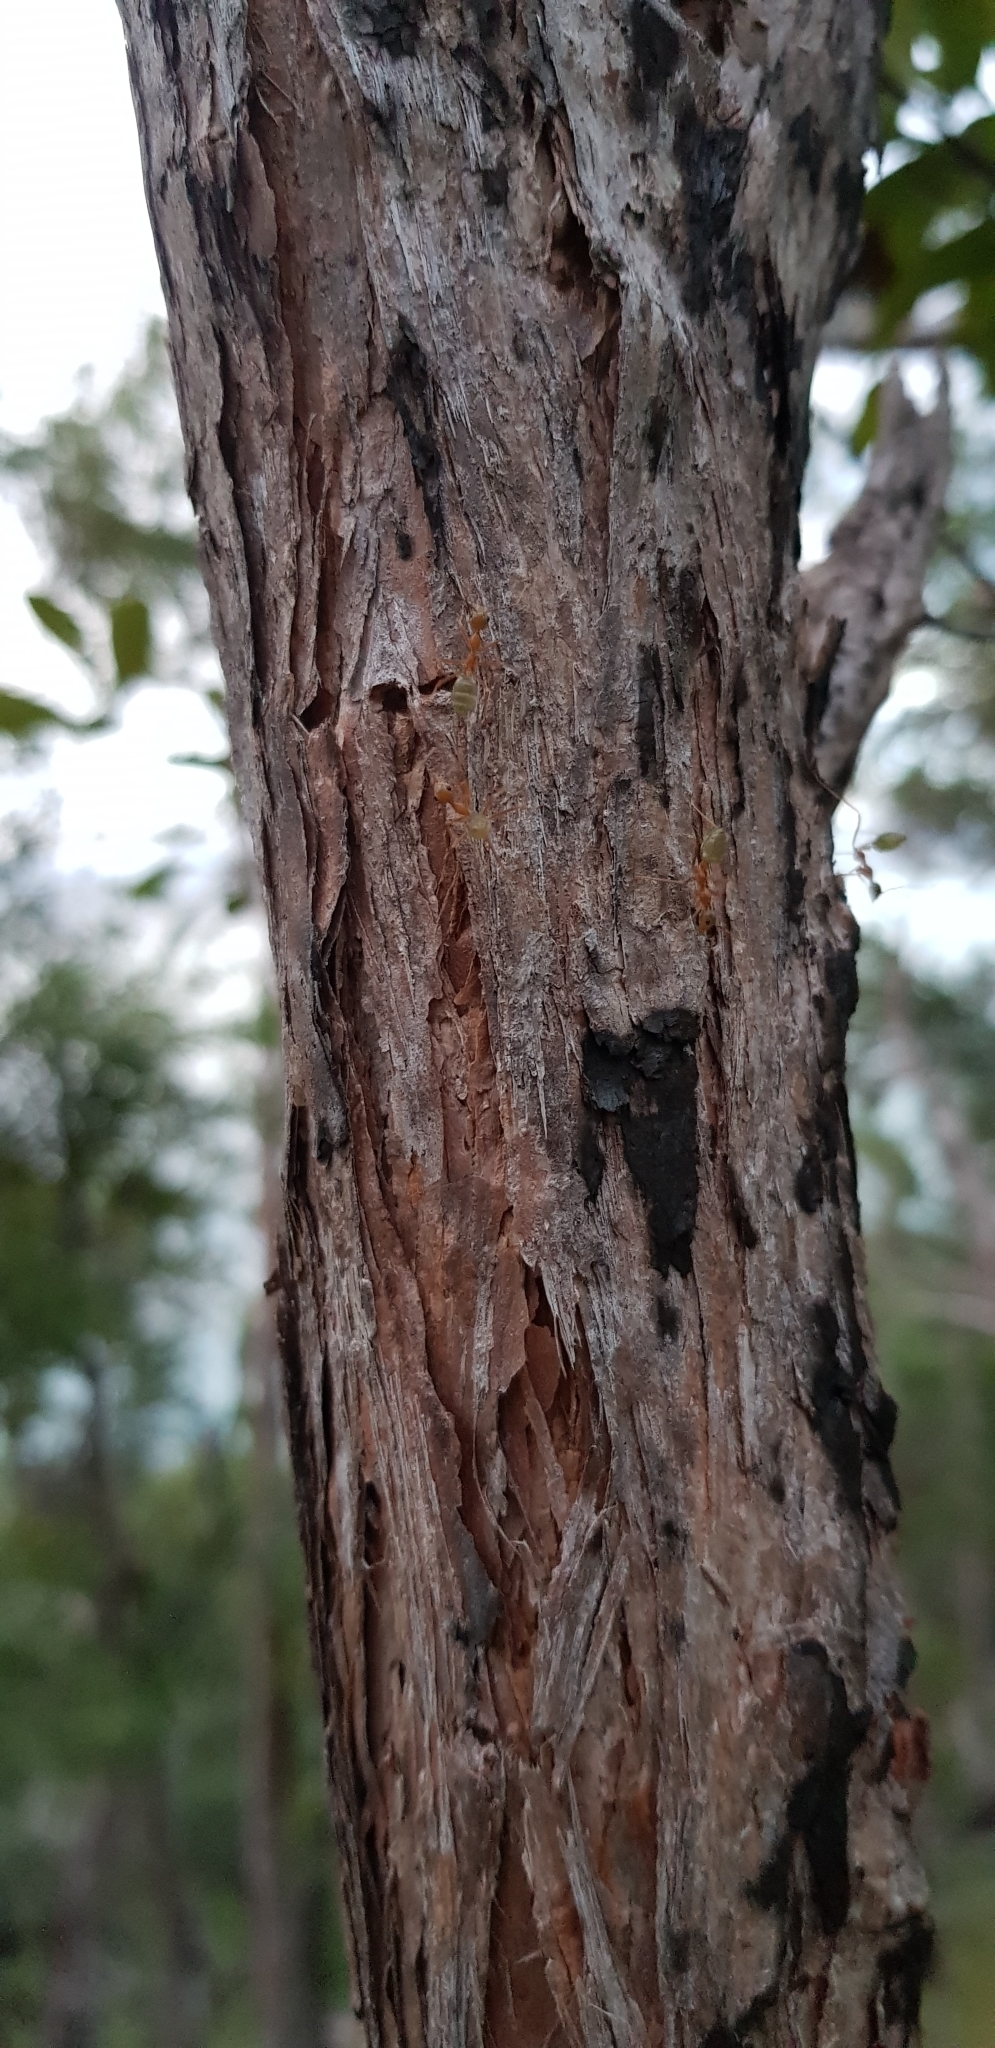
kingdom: Animalia
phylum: Arthropoda
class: Insecta
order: Hymenoptera
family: Formicidae
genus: Oecophylla
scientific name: Oecophylla smaragdina
